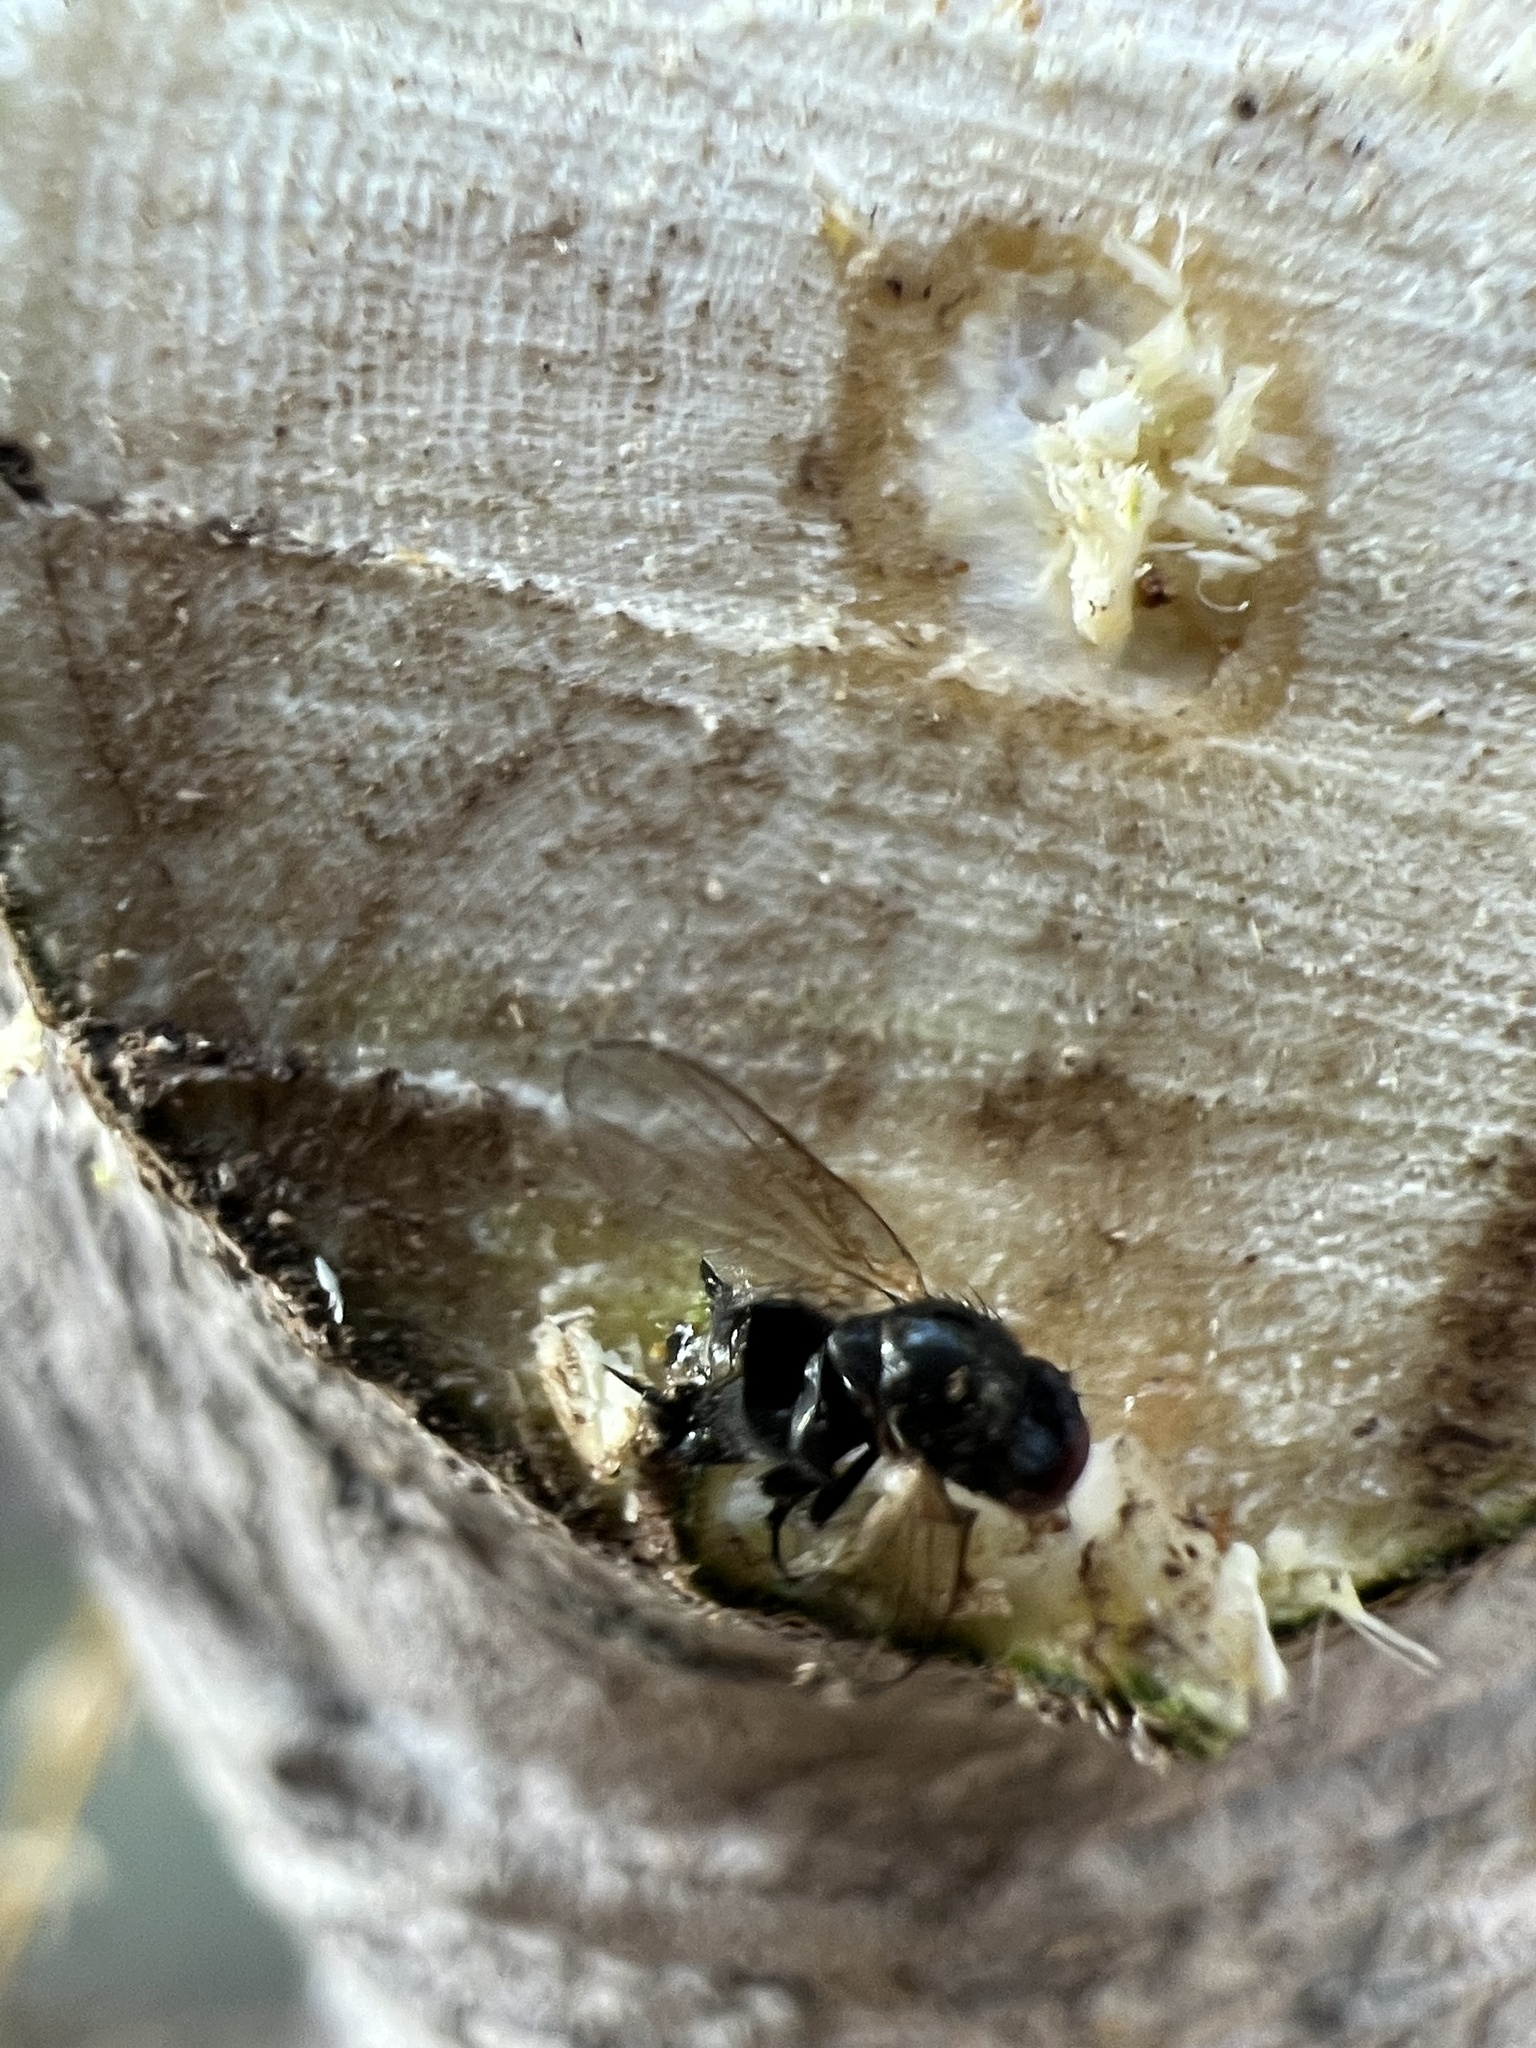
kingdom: Animalia
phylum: Arthropoda
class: Insecta
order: Diptera
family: Lonchaeidae
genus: Silba
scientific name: Silba adipata
